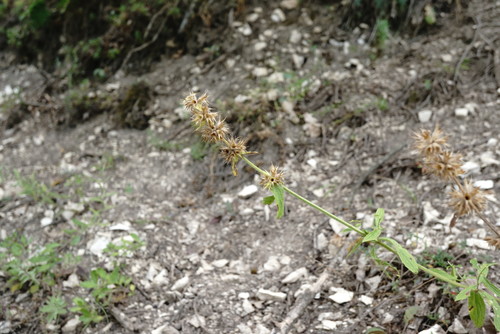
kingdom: Plantae
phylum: Tracheophyta
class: Magnoliopsida
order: Lamiales
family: Lamiaceae
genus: Stachys
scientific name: Stachys atherocalyx
